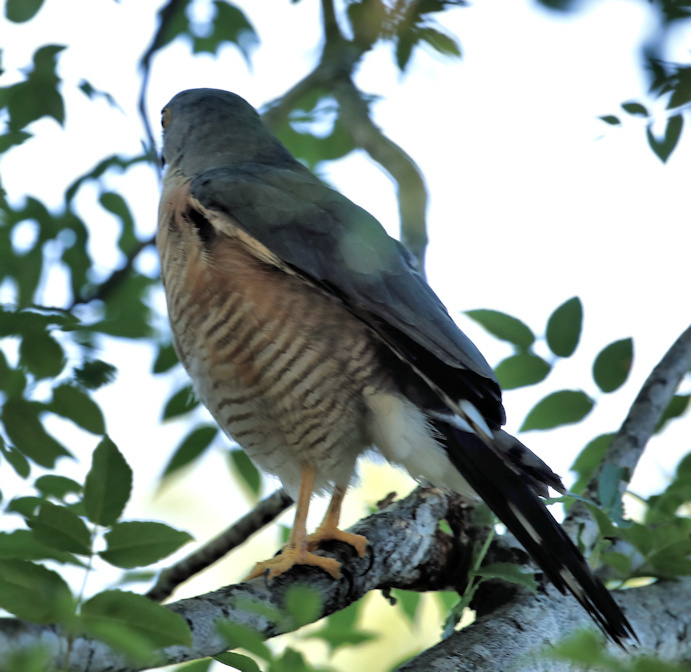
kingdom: Animalia
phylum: Chordata
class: Aves
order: Accipitriformes
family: Accipitridae
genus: Accipiter
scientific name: Accipiter tachiro
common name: African goshawk
